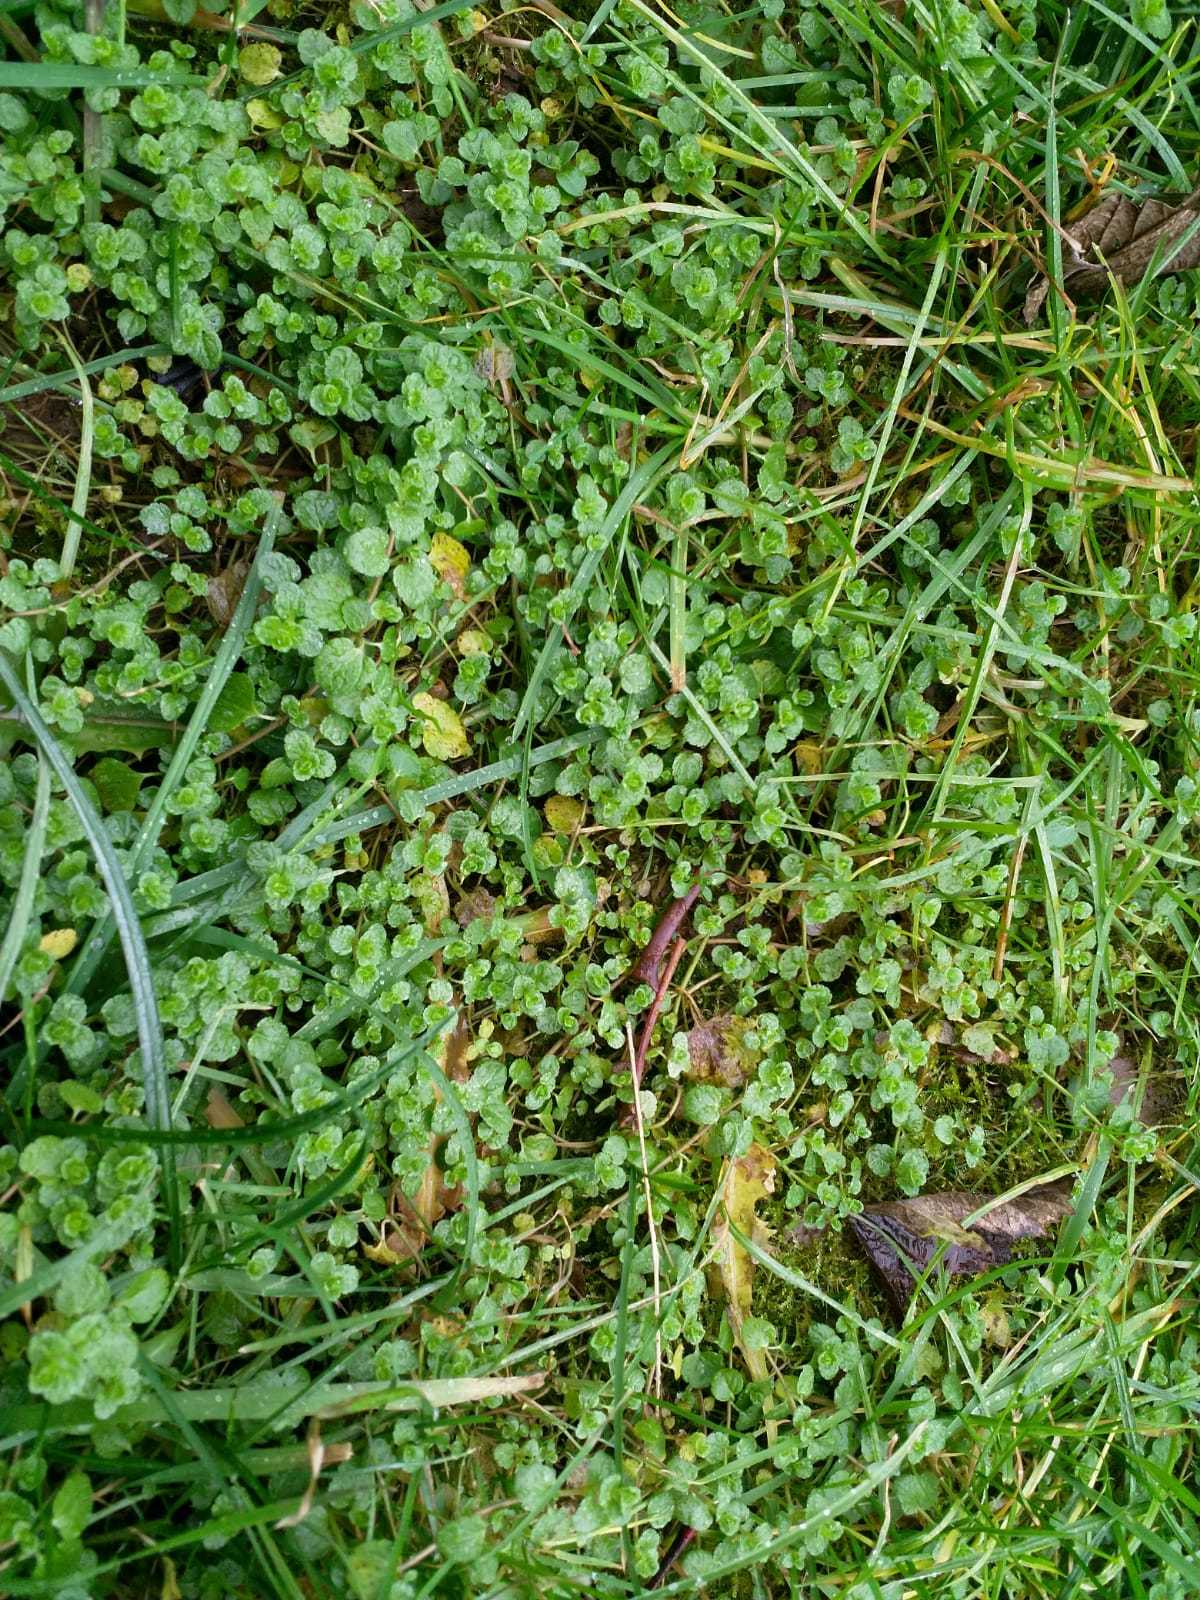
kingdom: Plantae
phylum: Tracheophyta
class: Magnoliopsida
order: Lamiales
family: Plantaginaceae
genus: Veronica
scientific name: Veronica filiformis
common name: Slender speedwell
